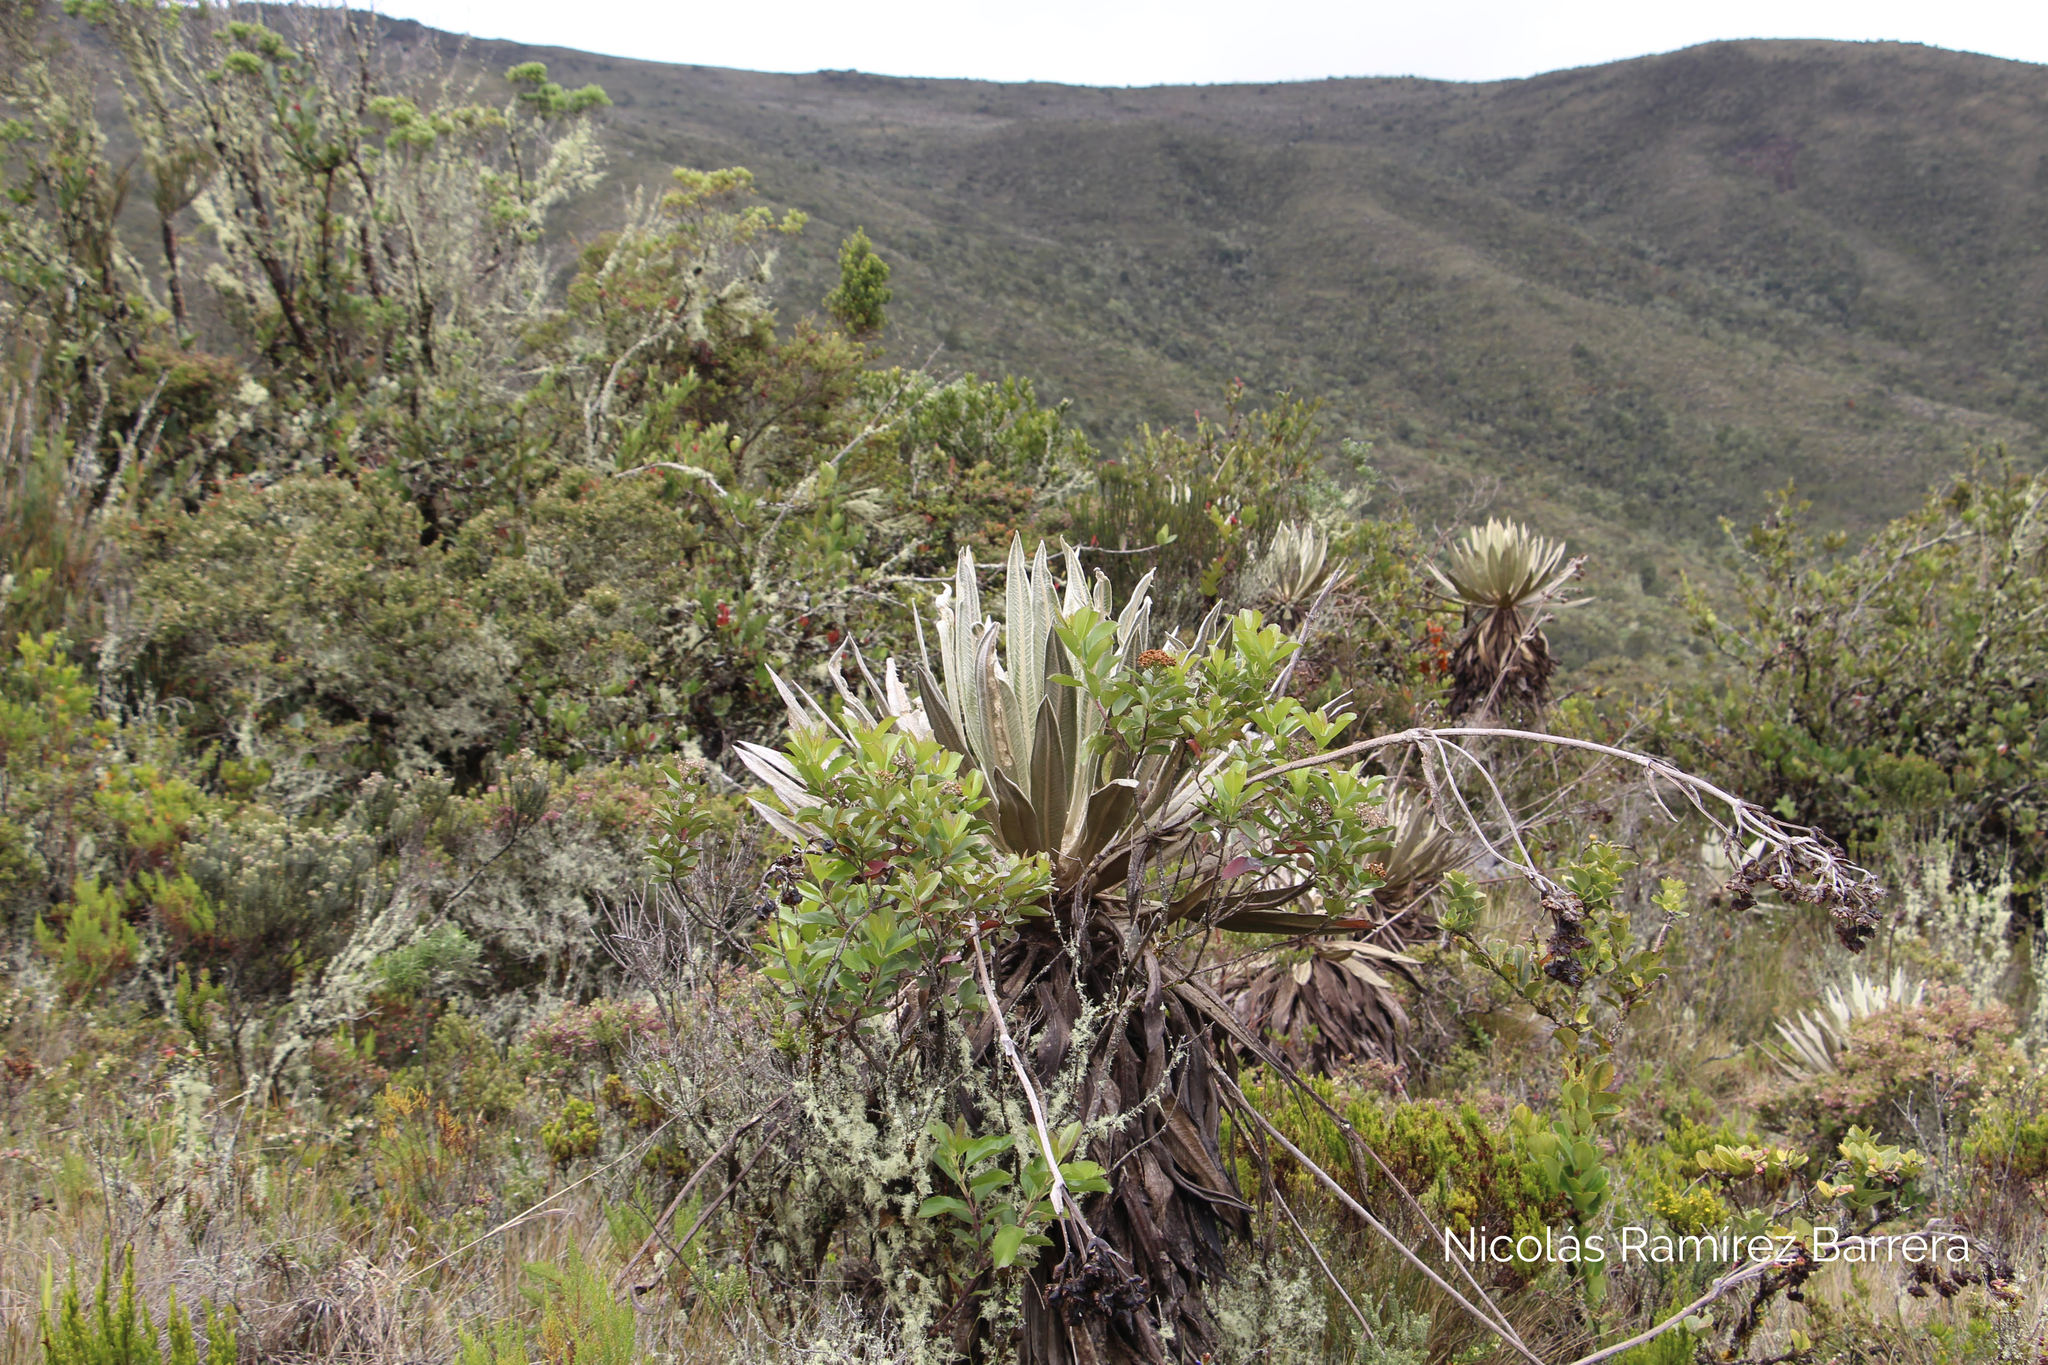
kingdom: Plantae
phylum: Tracheophyta
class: Magnoliopsida
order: Asterales
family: Asteraceae
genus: Espeletia
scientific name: Espeletia grandiflora
